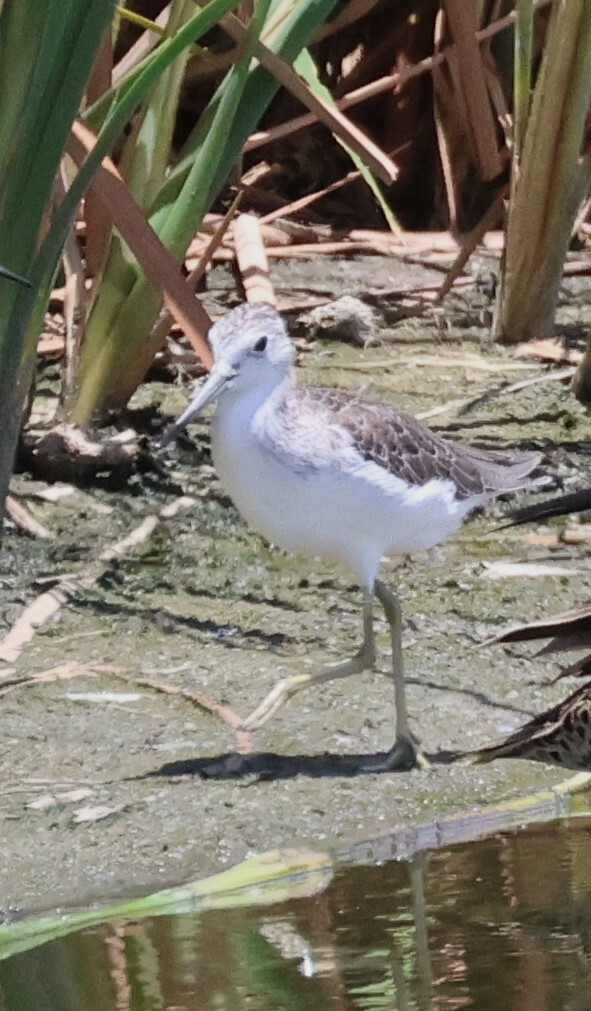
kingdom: Animalia
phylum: Chordata
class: Aves
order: Charadriiformes
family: Scolopacidae
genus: Tringa
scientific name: Tringa nebularia
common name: Common greenshank
